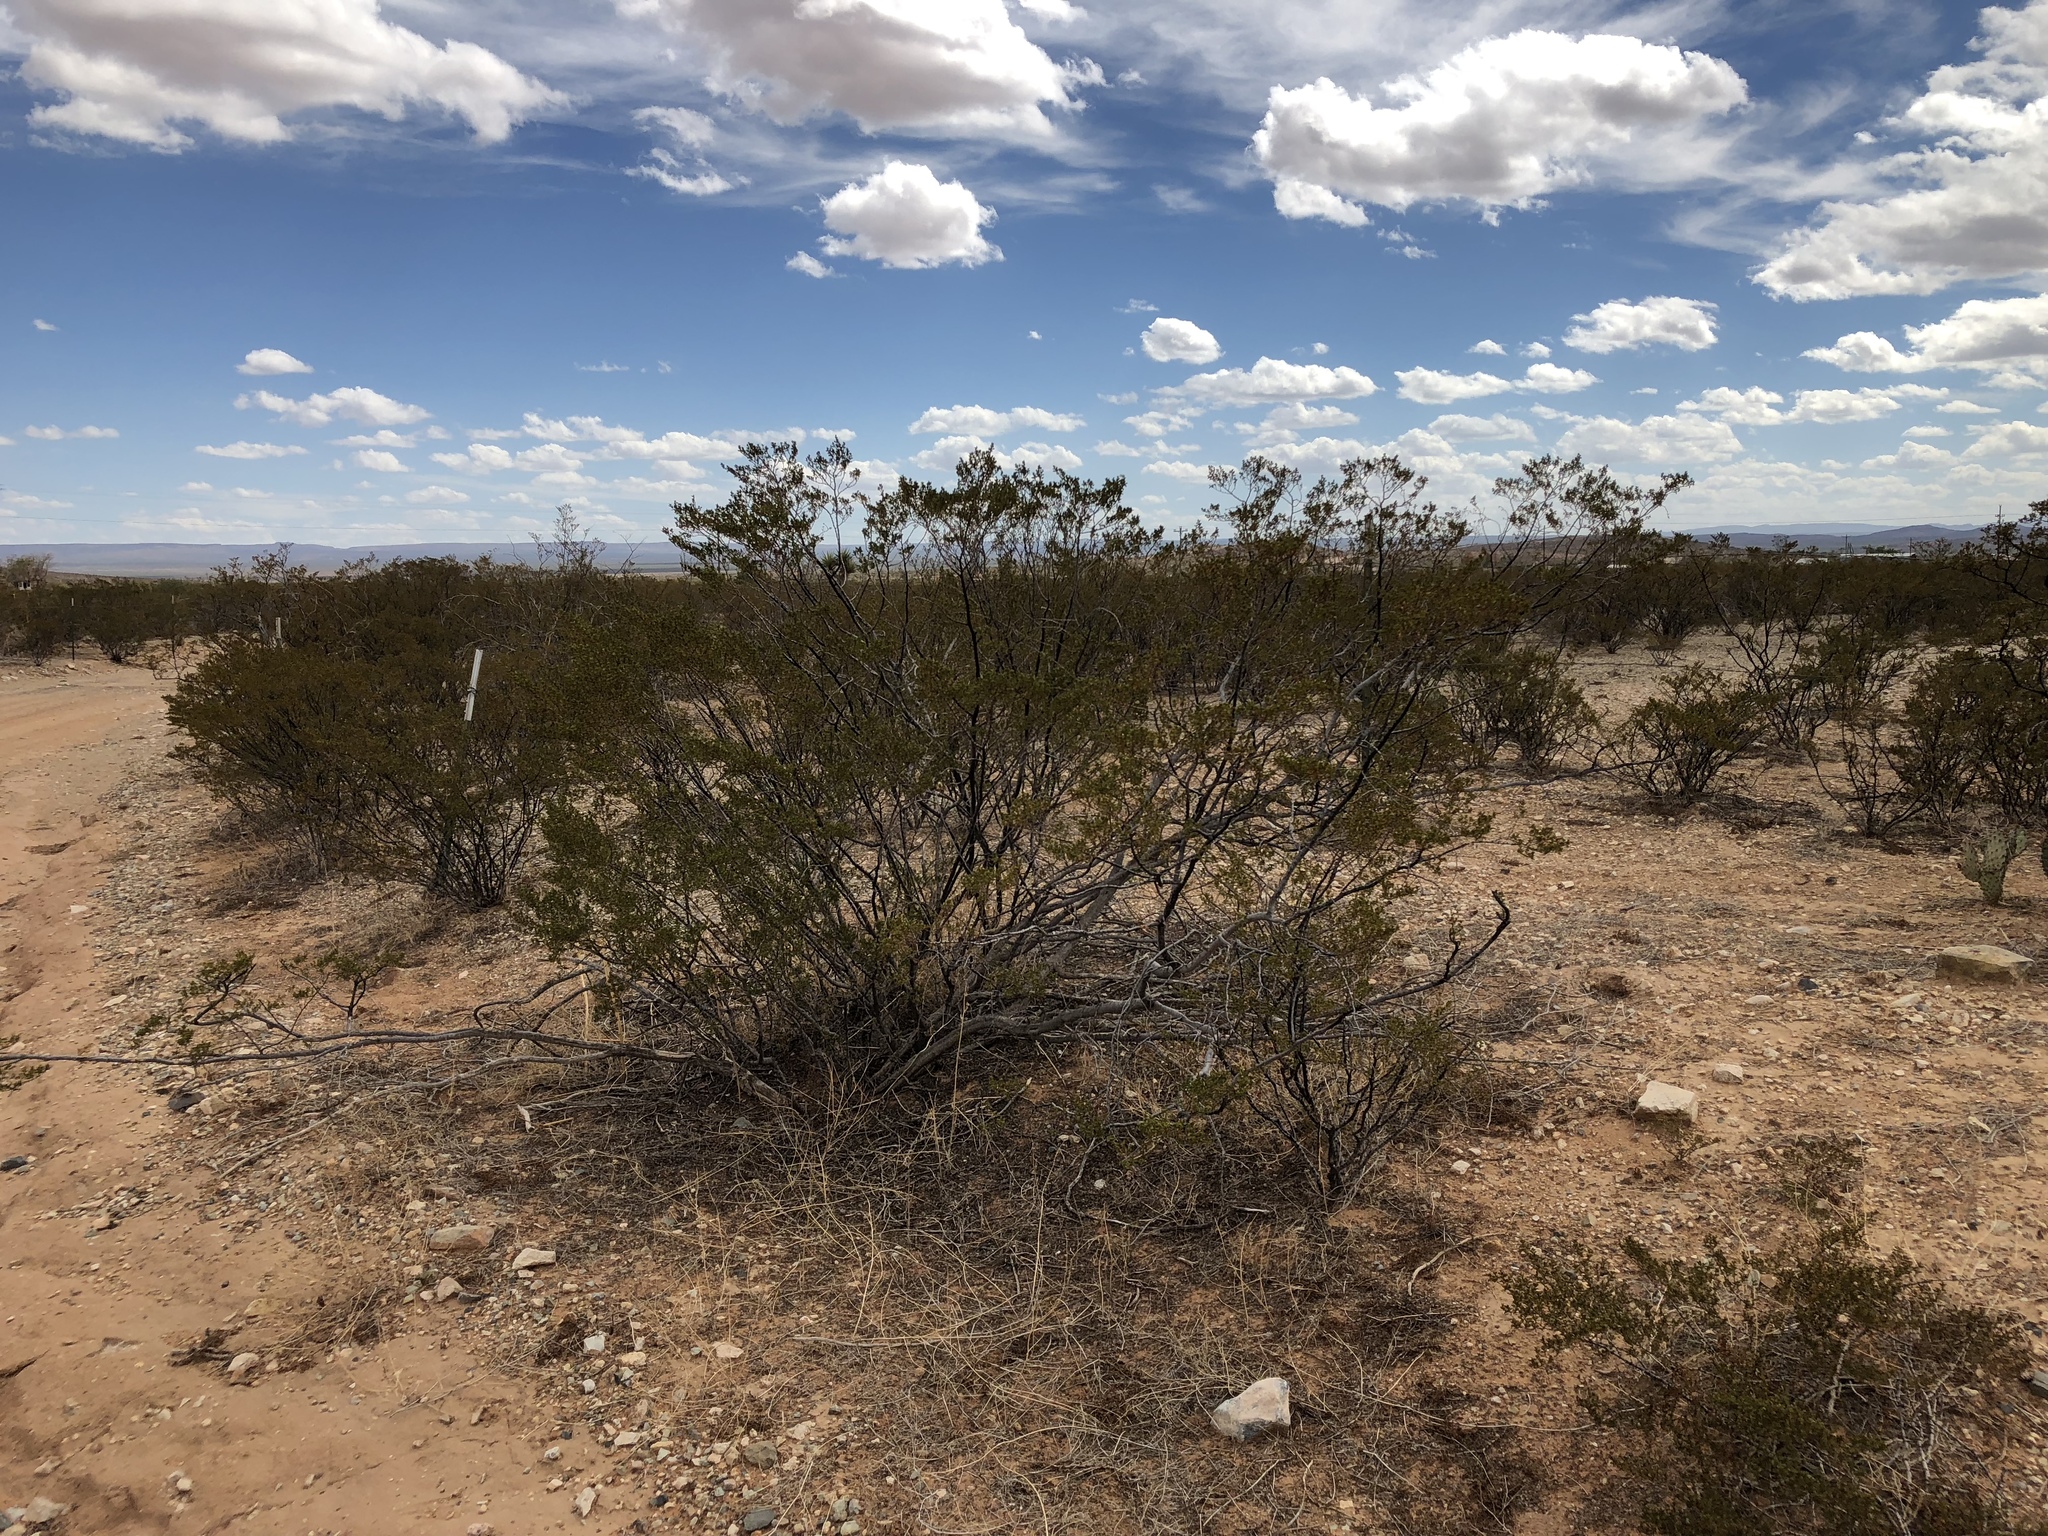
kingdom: Plantae
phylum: Tracheophyta
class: Magnoliopsida
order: Zygophyllales
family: Zygophyllaceae
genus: Larrea
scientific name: Larrea tridentata
